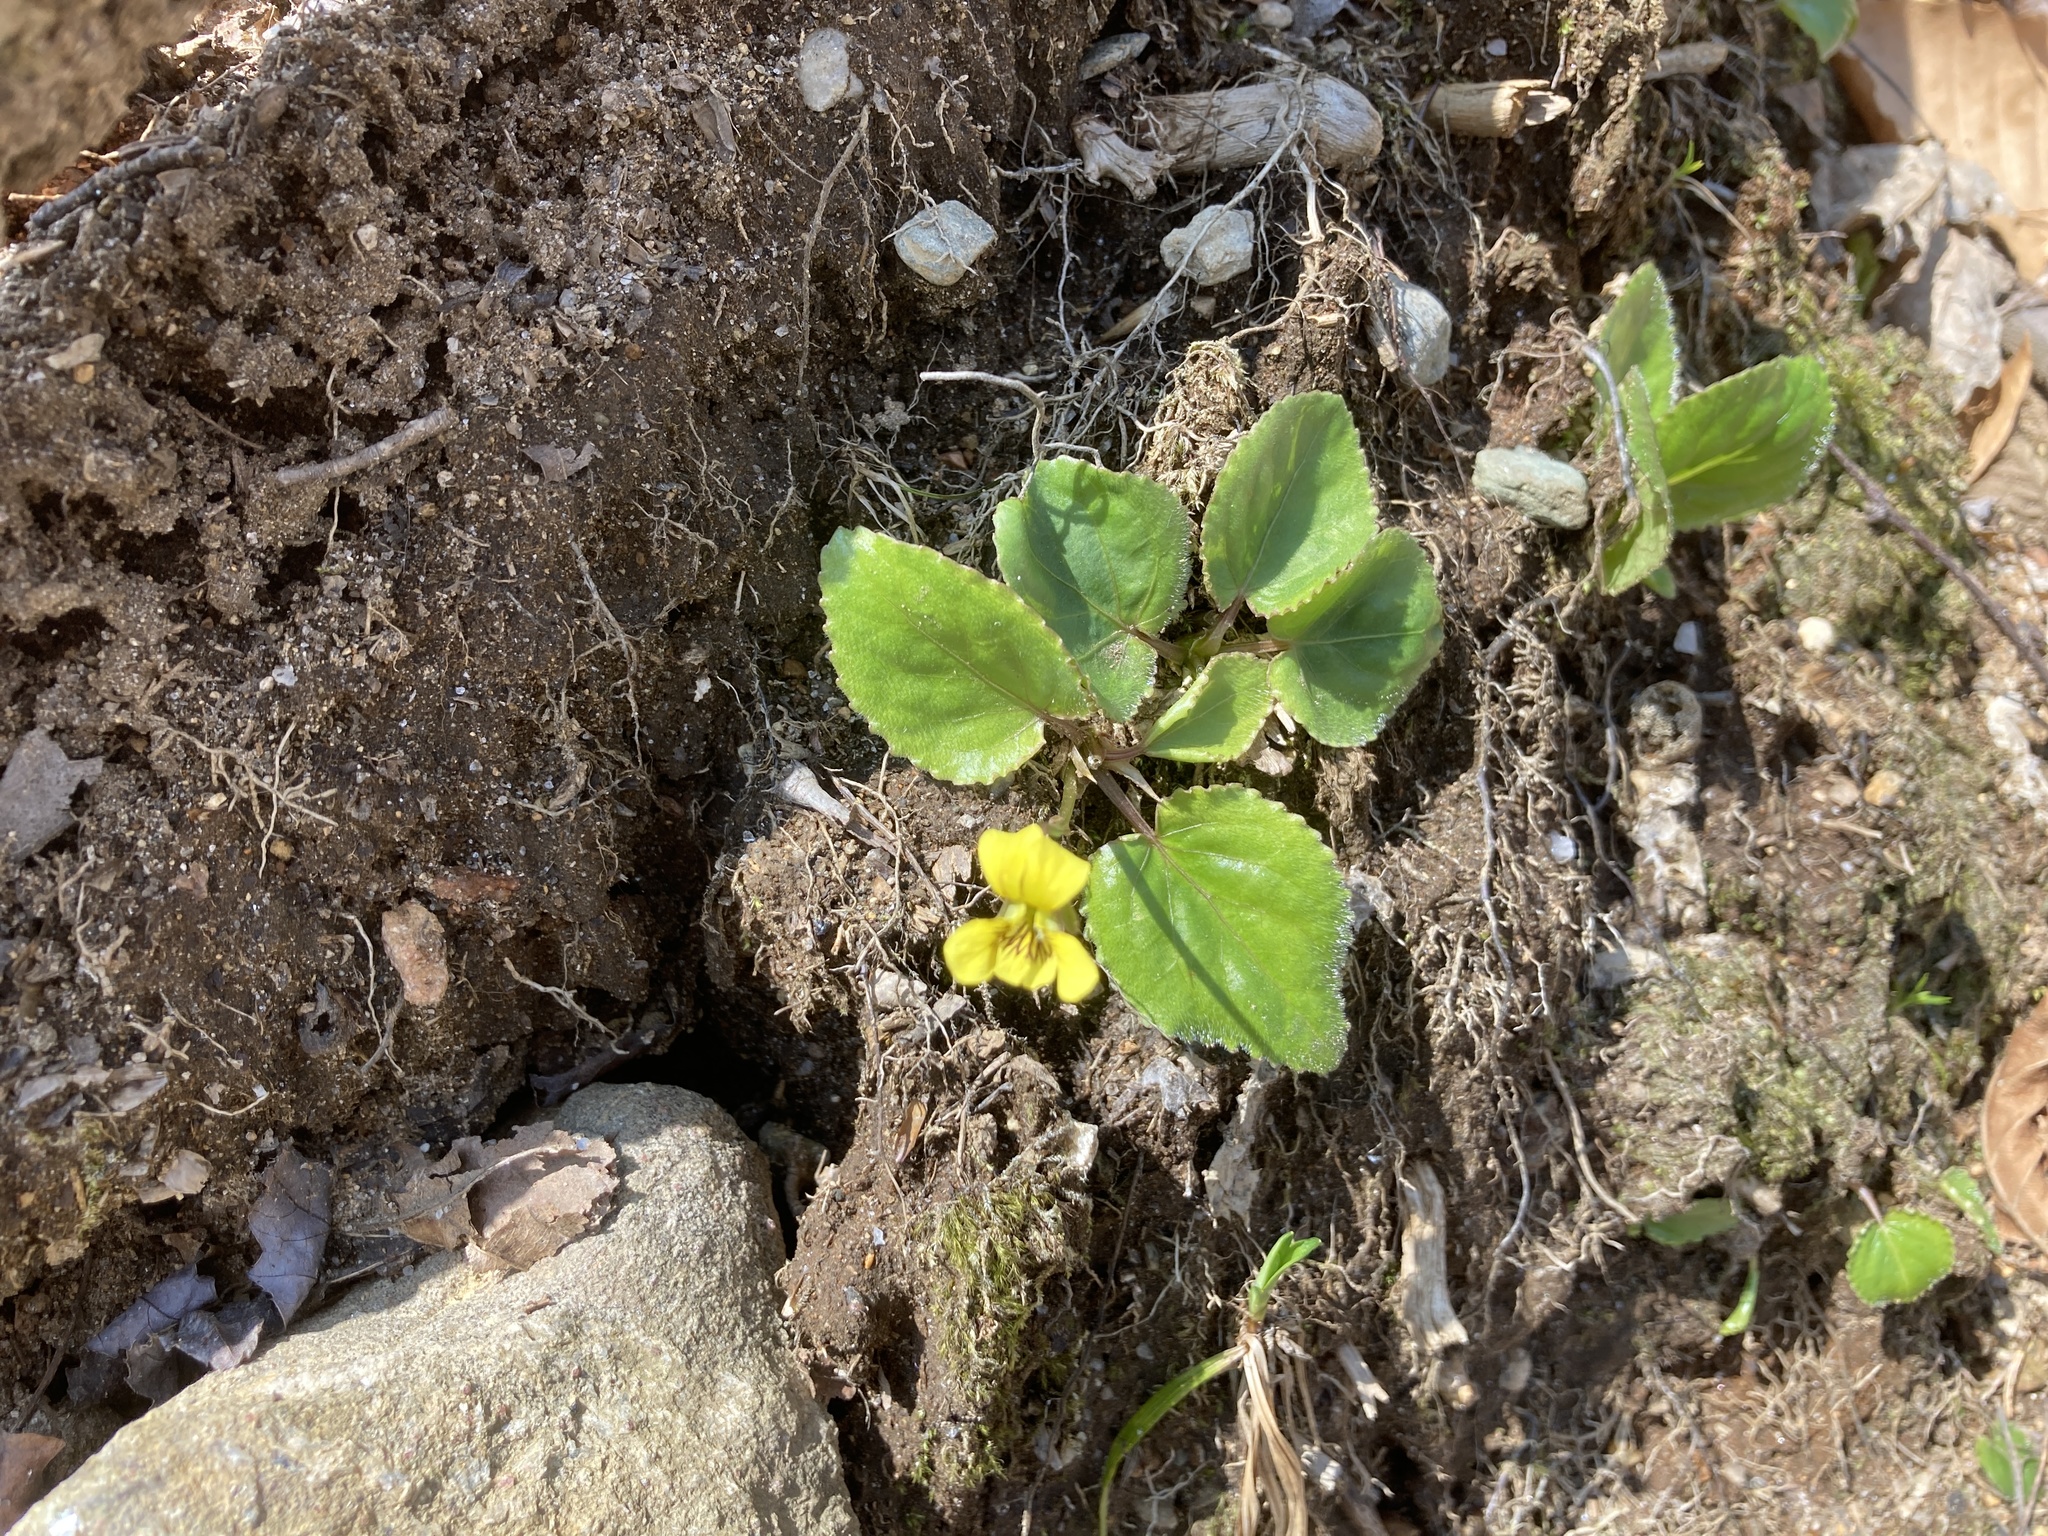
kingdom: Plantae
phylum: Tracheophyta
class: Magnoliopsida
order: Malpighiales
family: Violaceae
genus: Viola
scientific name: Viola rotundifolia
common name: Early yellow violet
